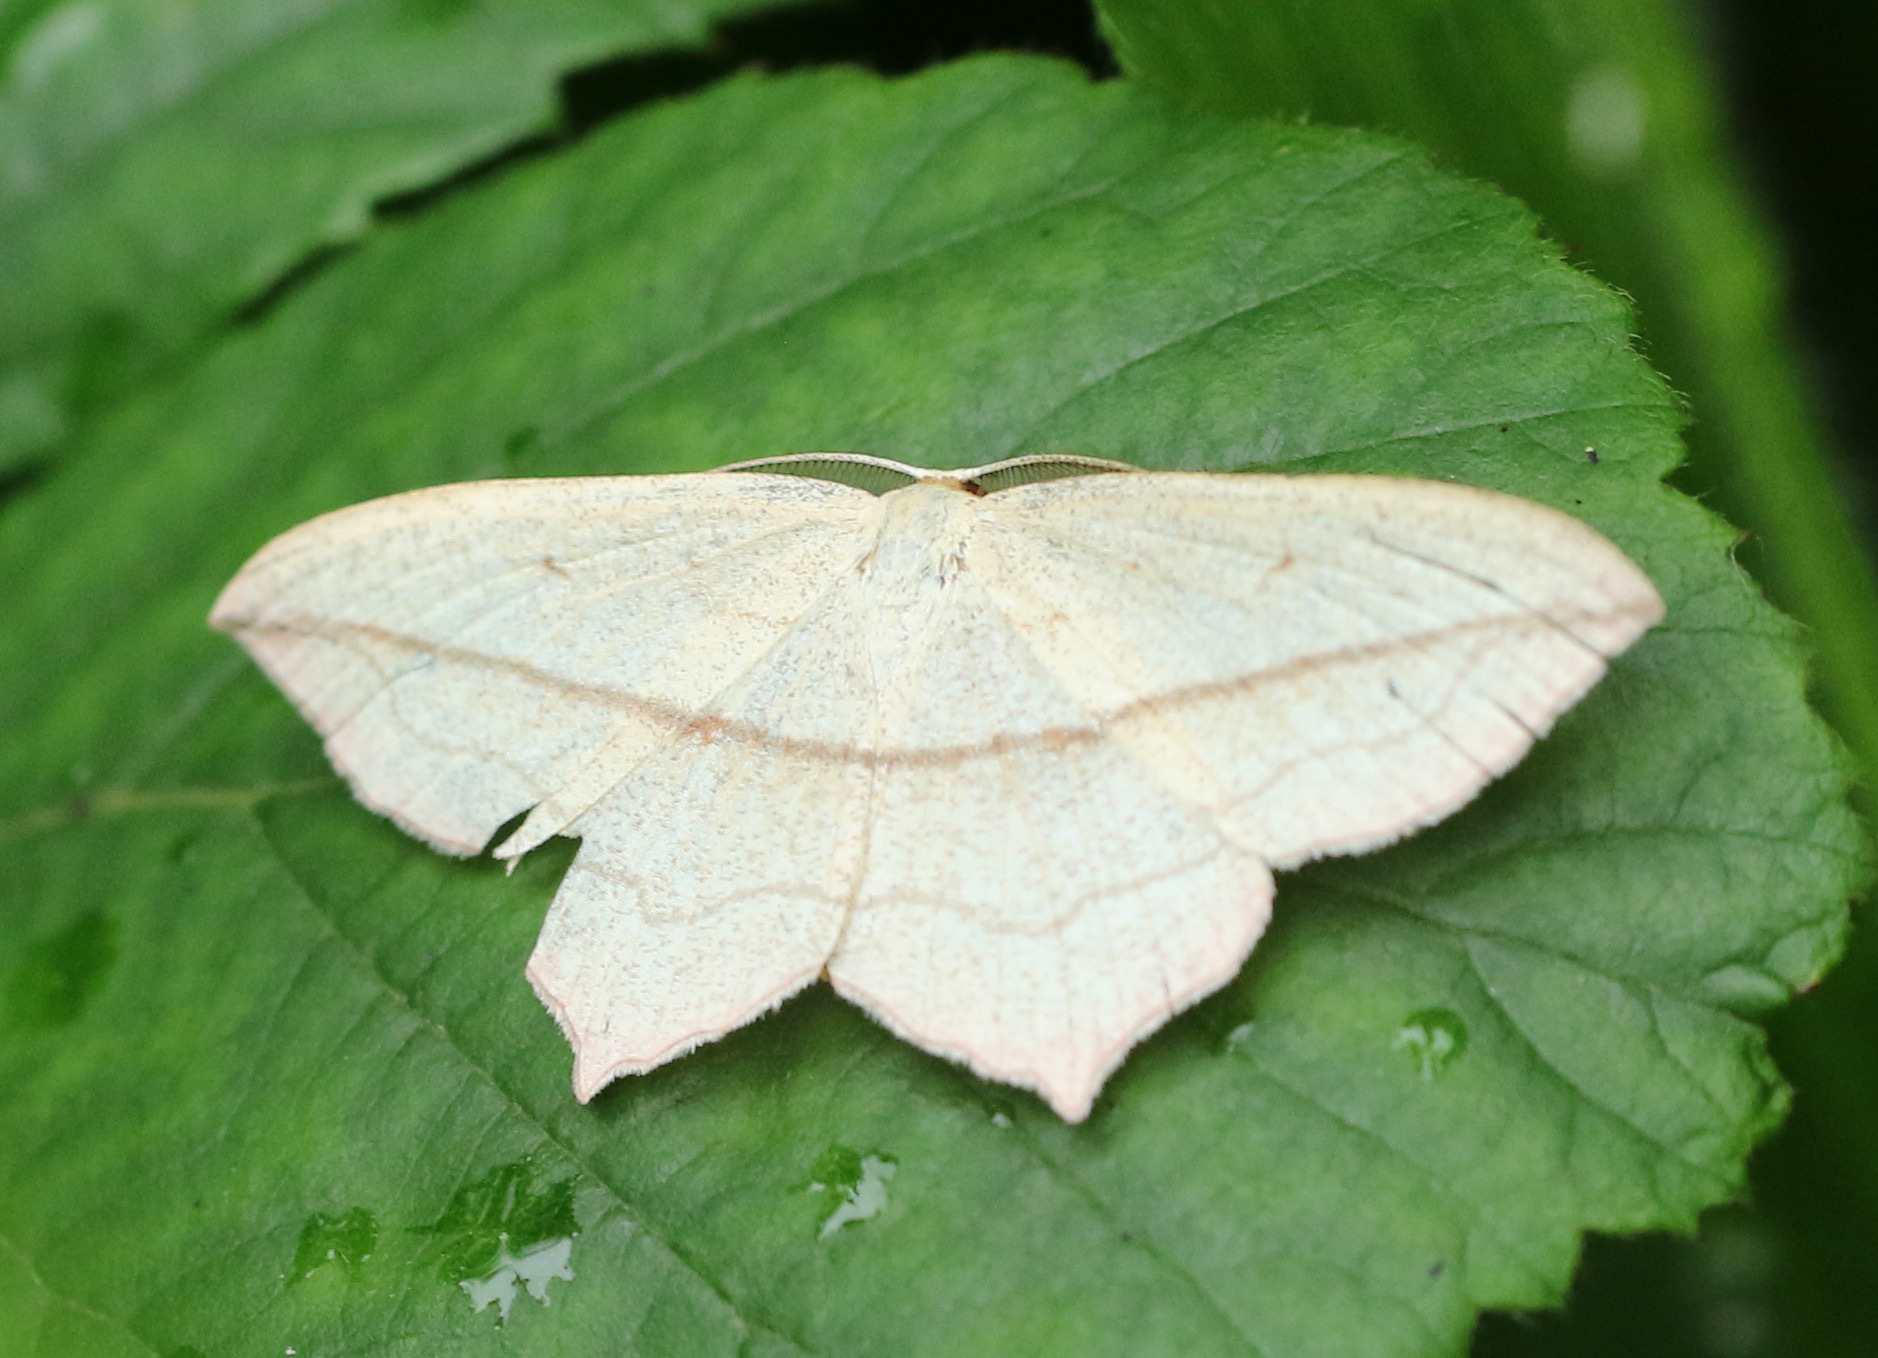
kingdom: Animalia
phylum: Arthropoda
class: Insecta
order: Lepidoptera
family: Geometridae
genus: Timandra
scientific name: Timandra comae
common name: Blood-vein
